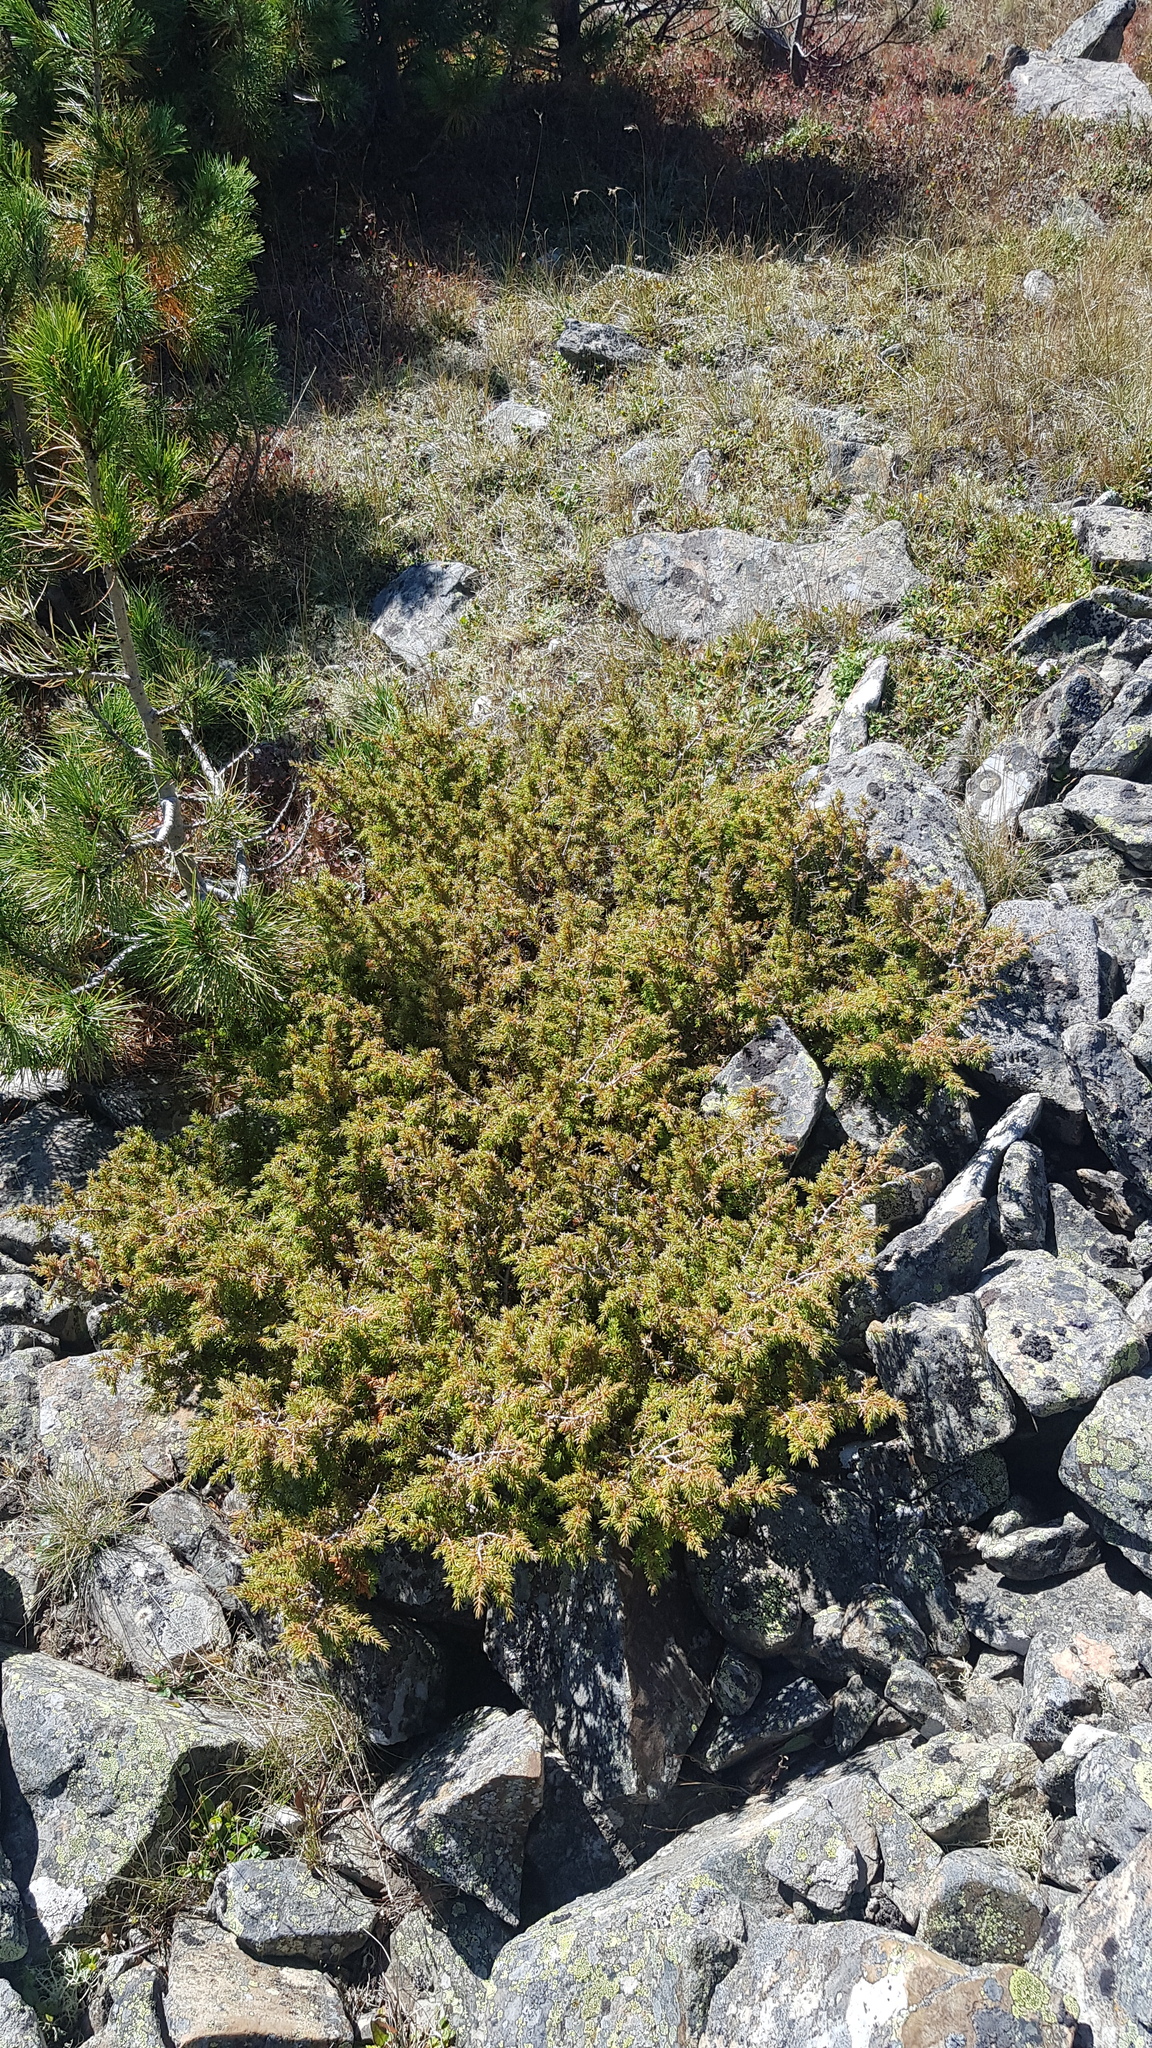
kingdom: Plantae
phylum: Tracheophyta
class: Pinopsida
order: Pinales
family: Cupressaceae
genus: Juniperus
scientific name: Juniperus communis
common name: Common juniper
